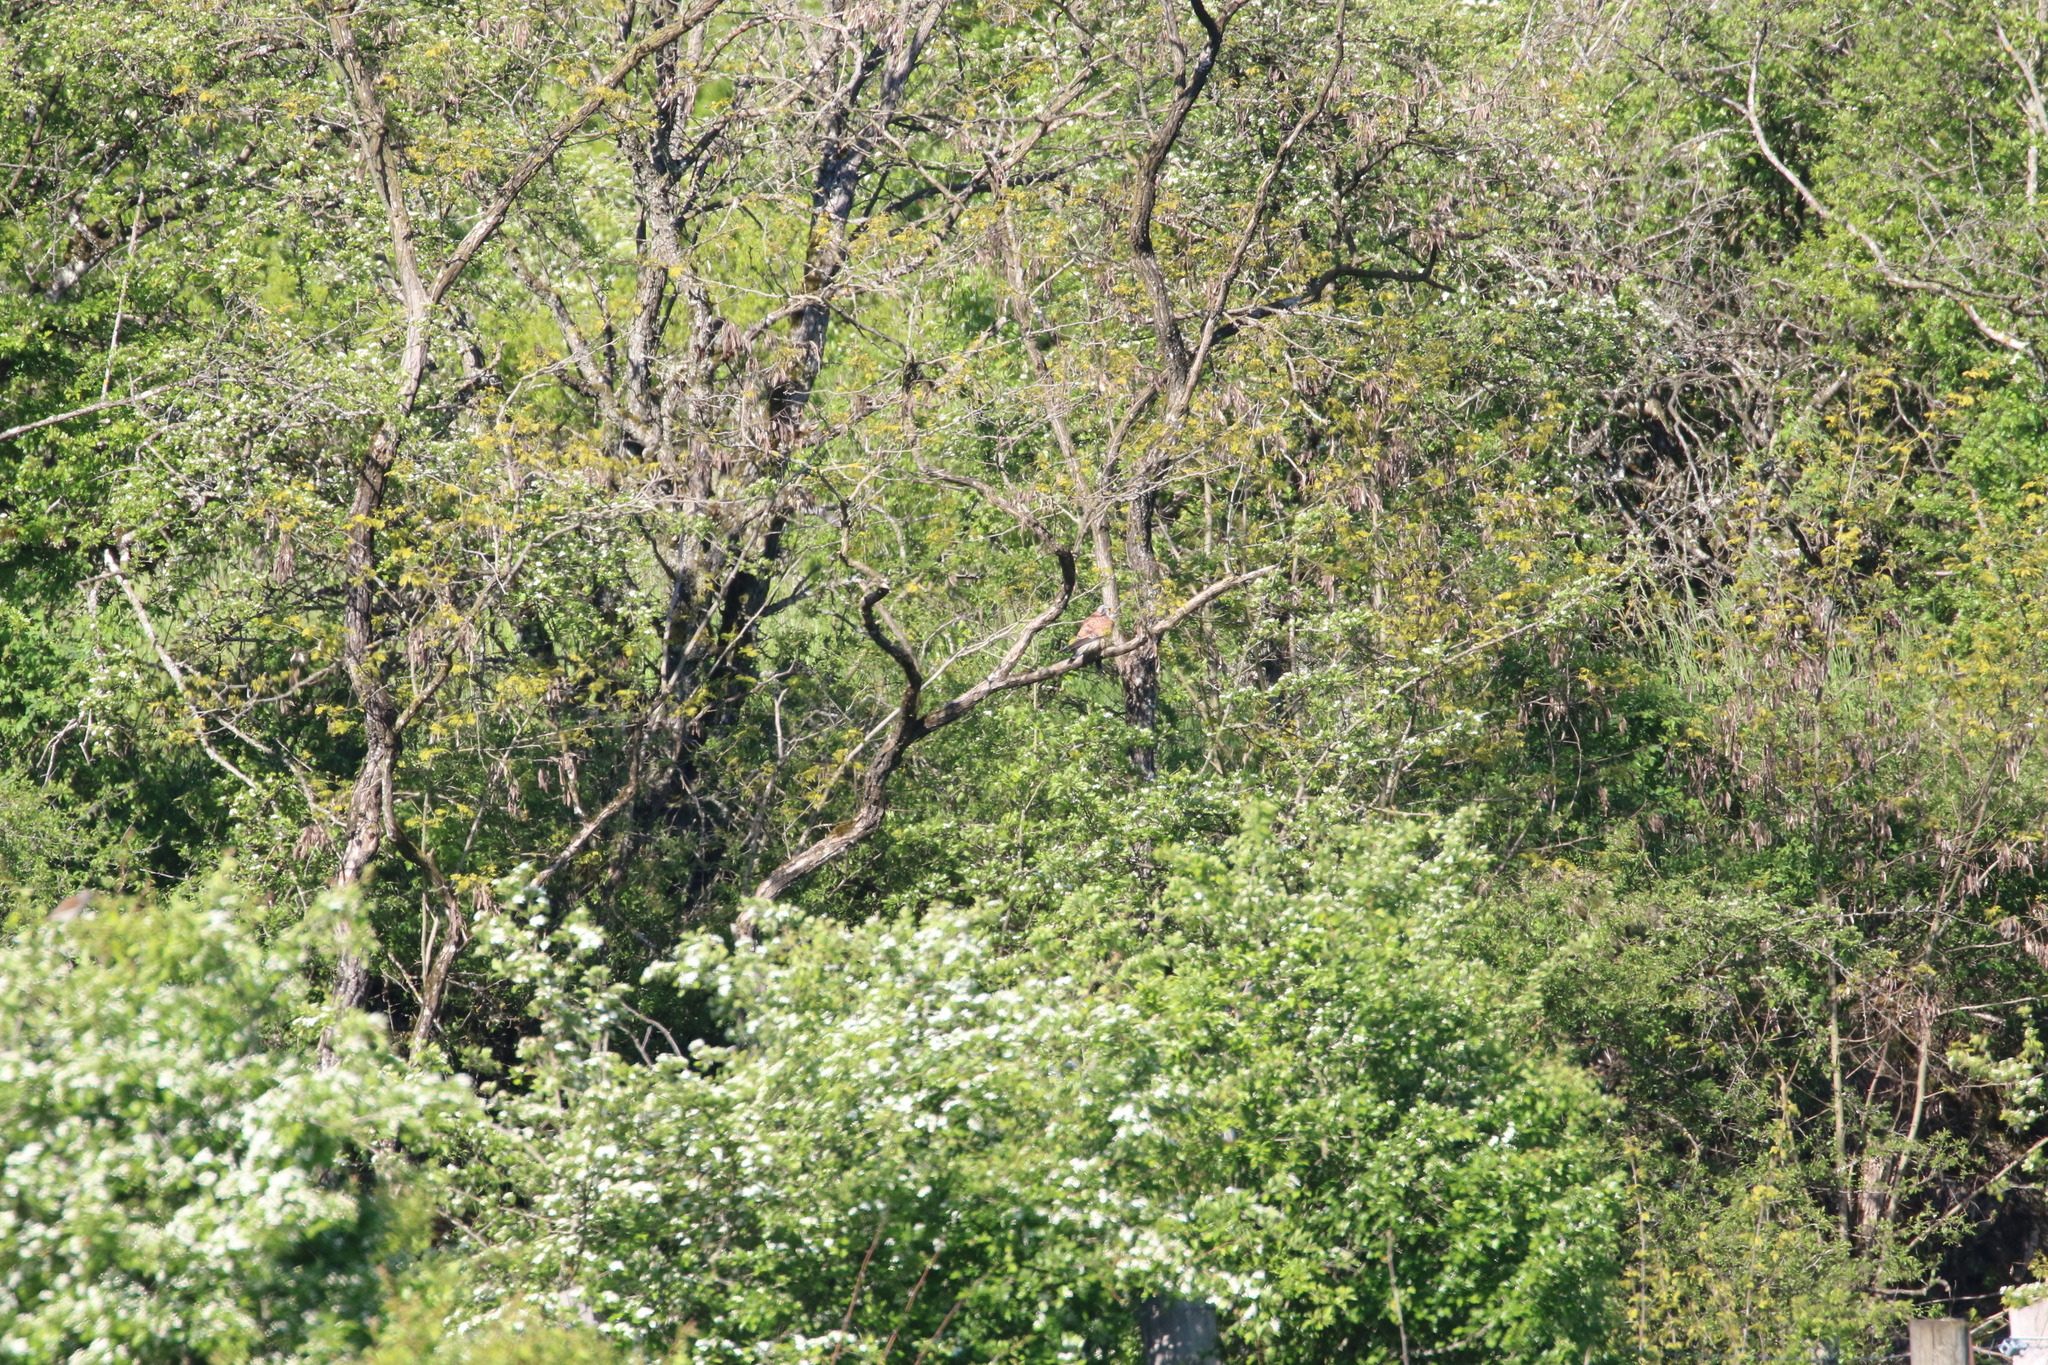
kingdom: Animalia
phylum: Chordata
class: Aves
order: Falconiformes
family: Falconidae
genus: Falco
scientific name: Falco tinnunculus
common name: Common kestrel
